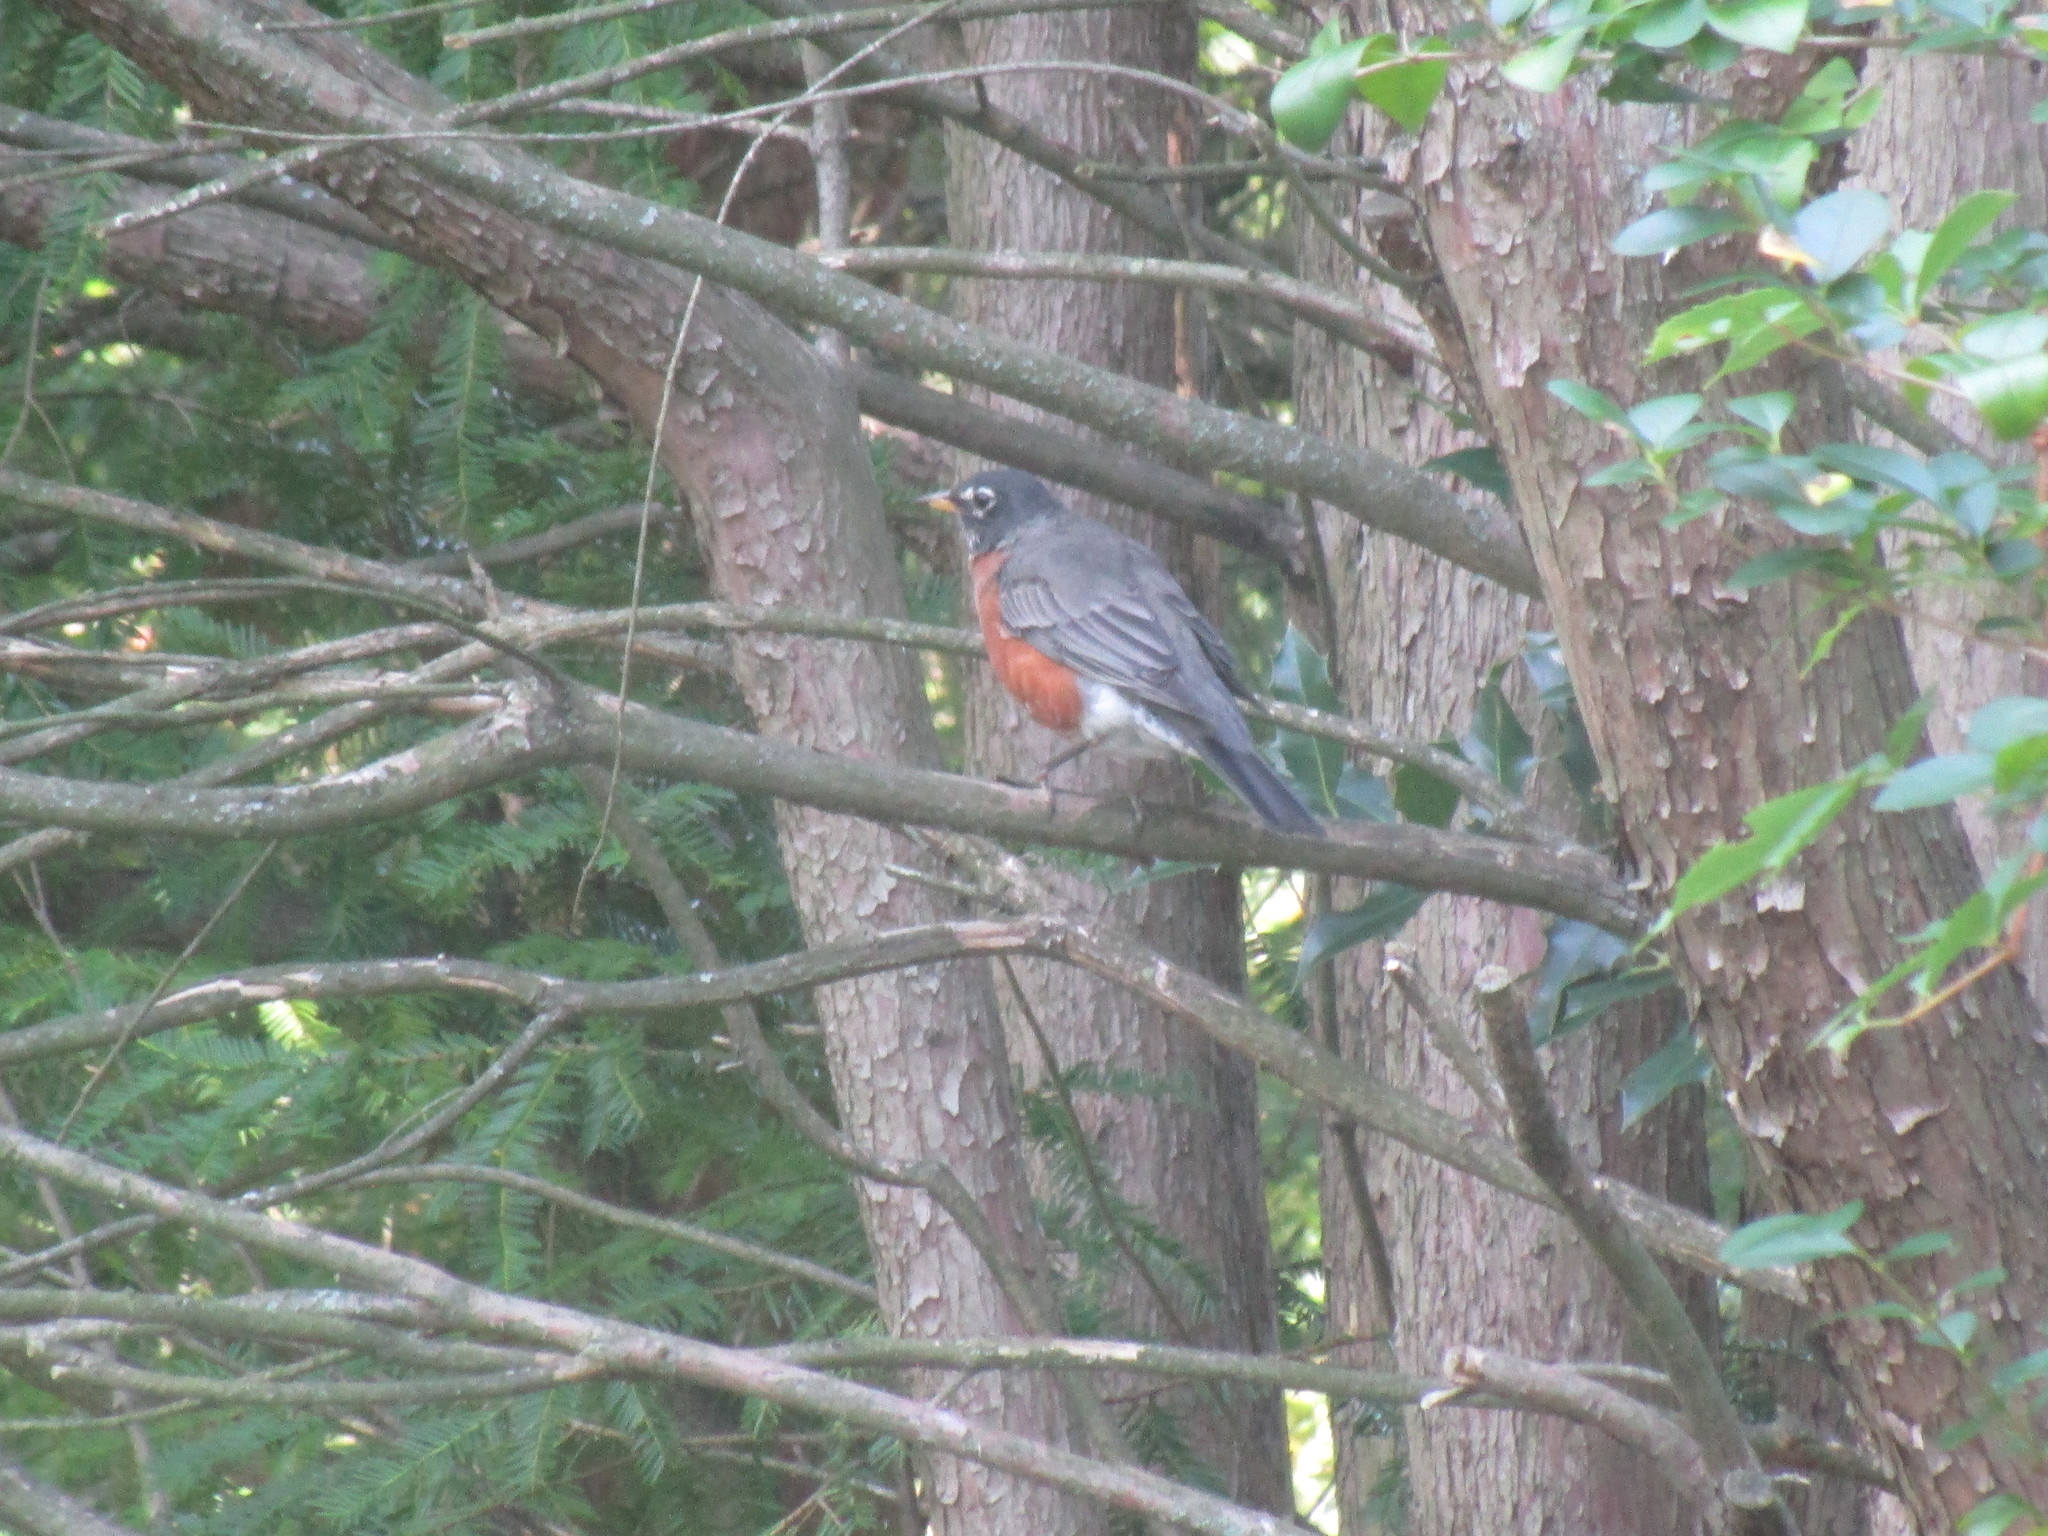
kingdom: Animalia
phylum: Chordata
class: Aves
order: Passeriformes
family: Turdidae
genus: Turdus
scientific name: Turdus migratorius
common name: American robin
